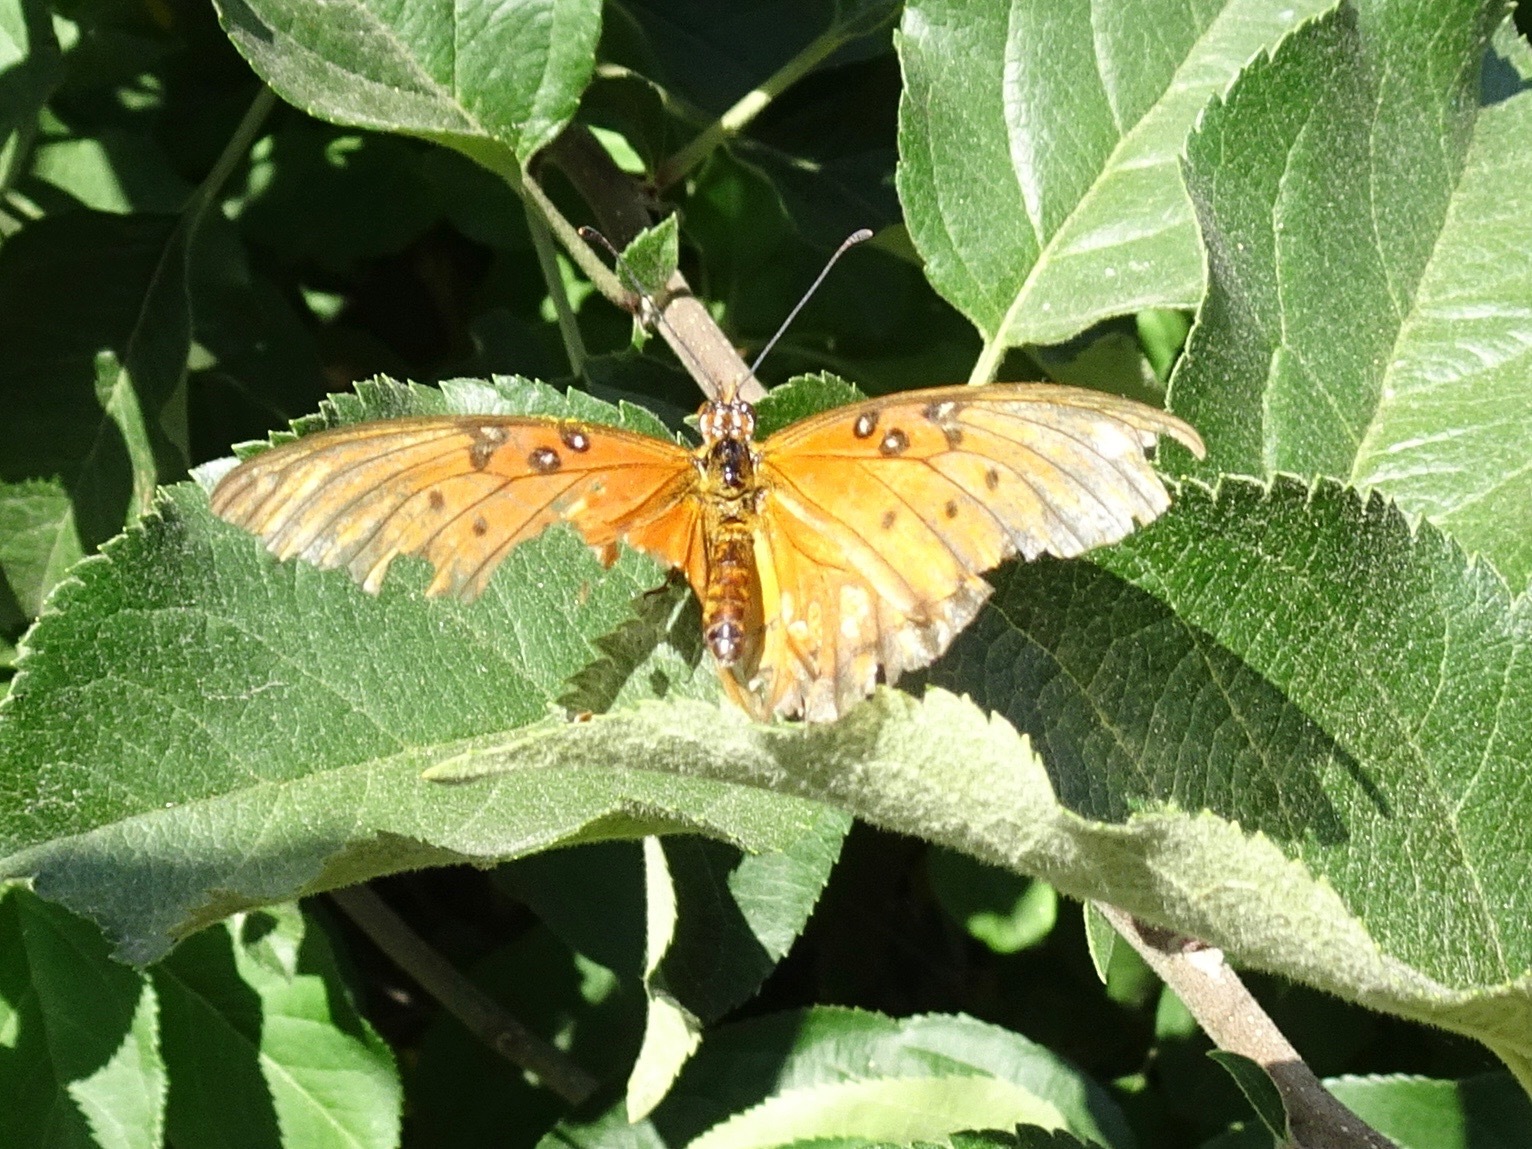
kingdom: Animalia
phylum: Arthropoda
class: Insecta
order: Lepidoptera
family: Nymphalidae
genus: Dione
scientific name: Dione vanillae
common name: Gulf fritillary
